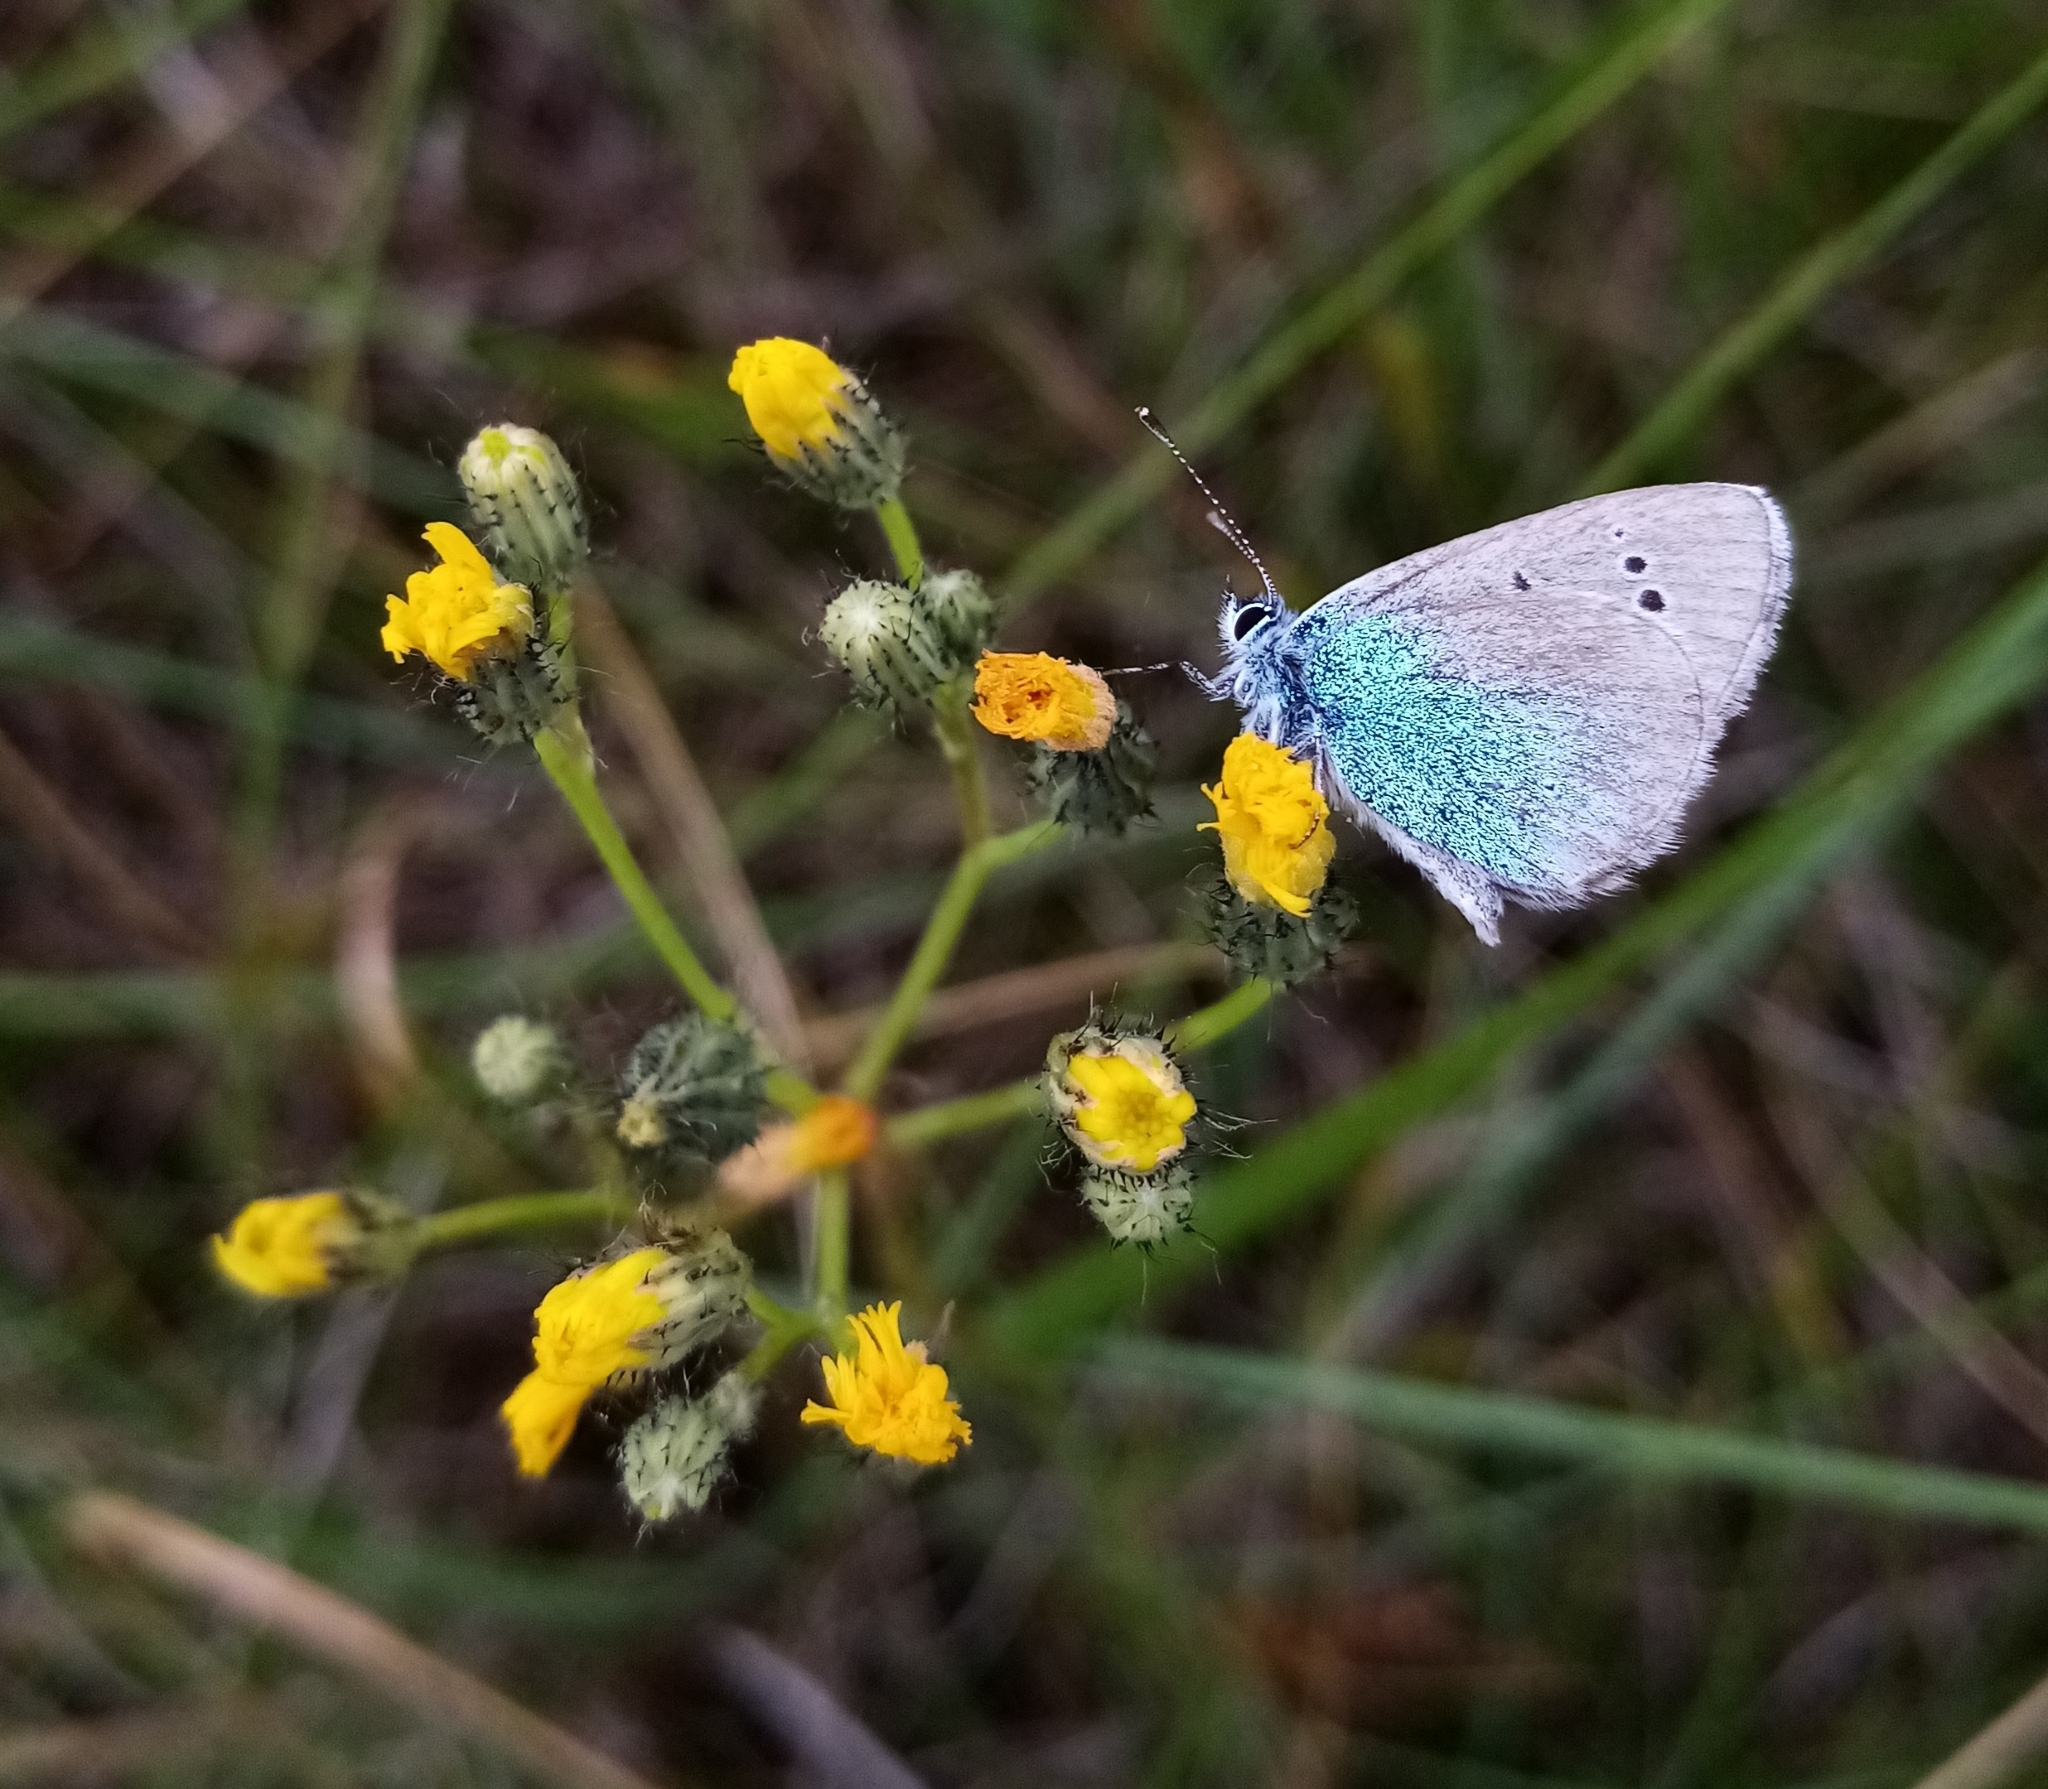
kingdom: Animalia
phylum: Arthropoda
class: Insecta
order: Lepidoptera
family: Lycaenidae
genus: Glaucopsyche
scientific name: Glaucopsyche alexis
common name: Green-underside blue
